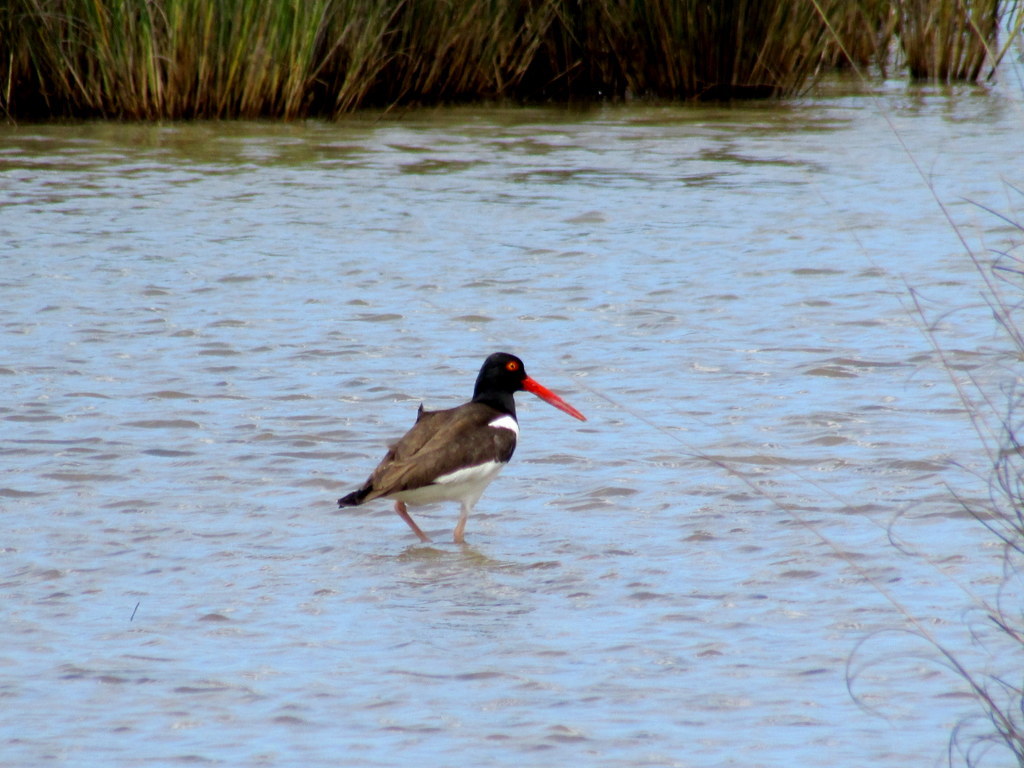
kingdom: Animalia
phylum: Chordata
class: Aves
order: Charadriiformes
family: Haematopodidae
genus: Haematopus
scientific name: Haematopus palliatus
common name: American oystercatcher
